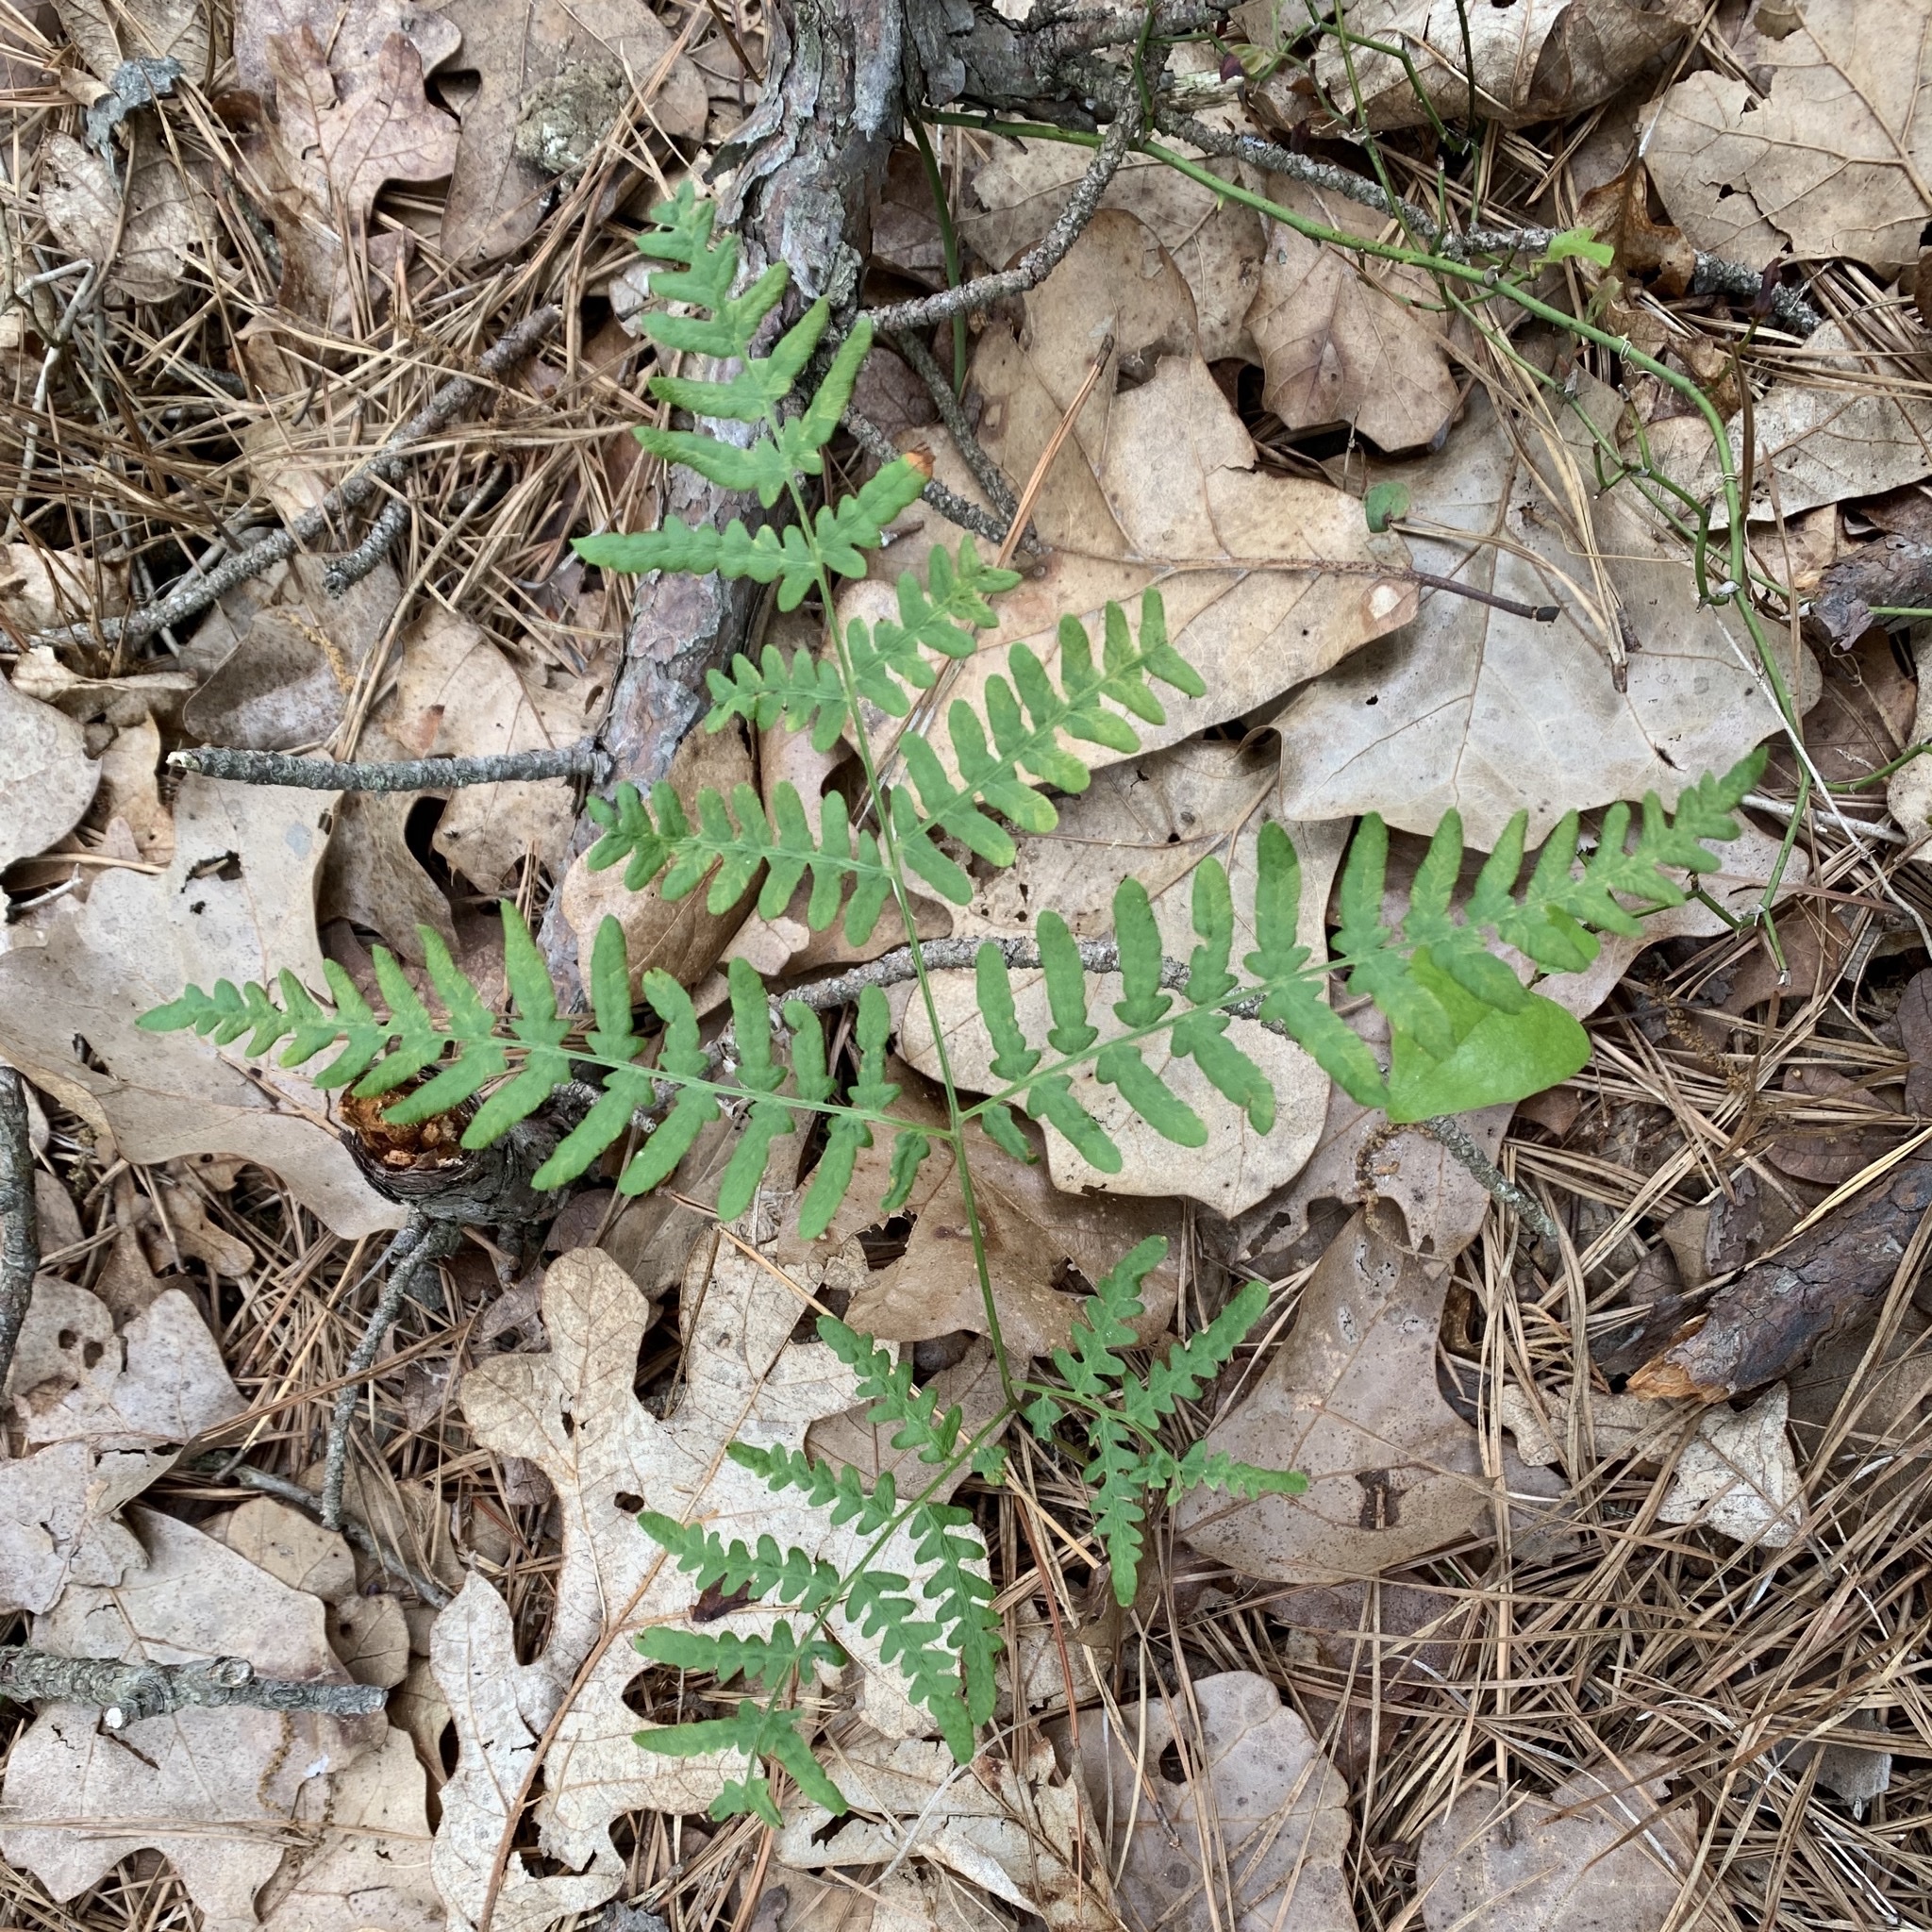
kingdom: Plantae
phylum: Tracheophyta
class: Polypodiopsida
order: Polypodiales
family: Dennstaedtiaceae
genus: Pteridium
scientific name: Pteridium aquilinum
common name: Bracken
